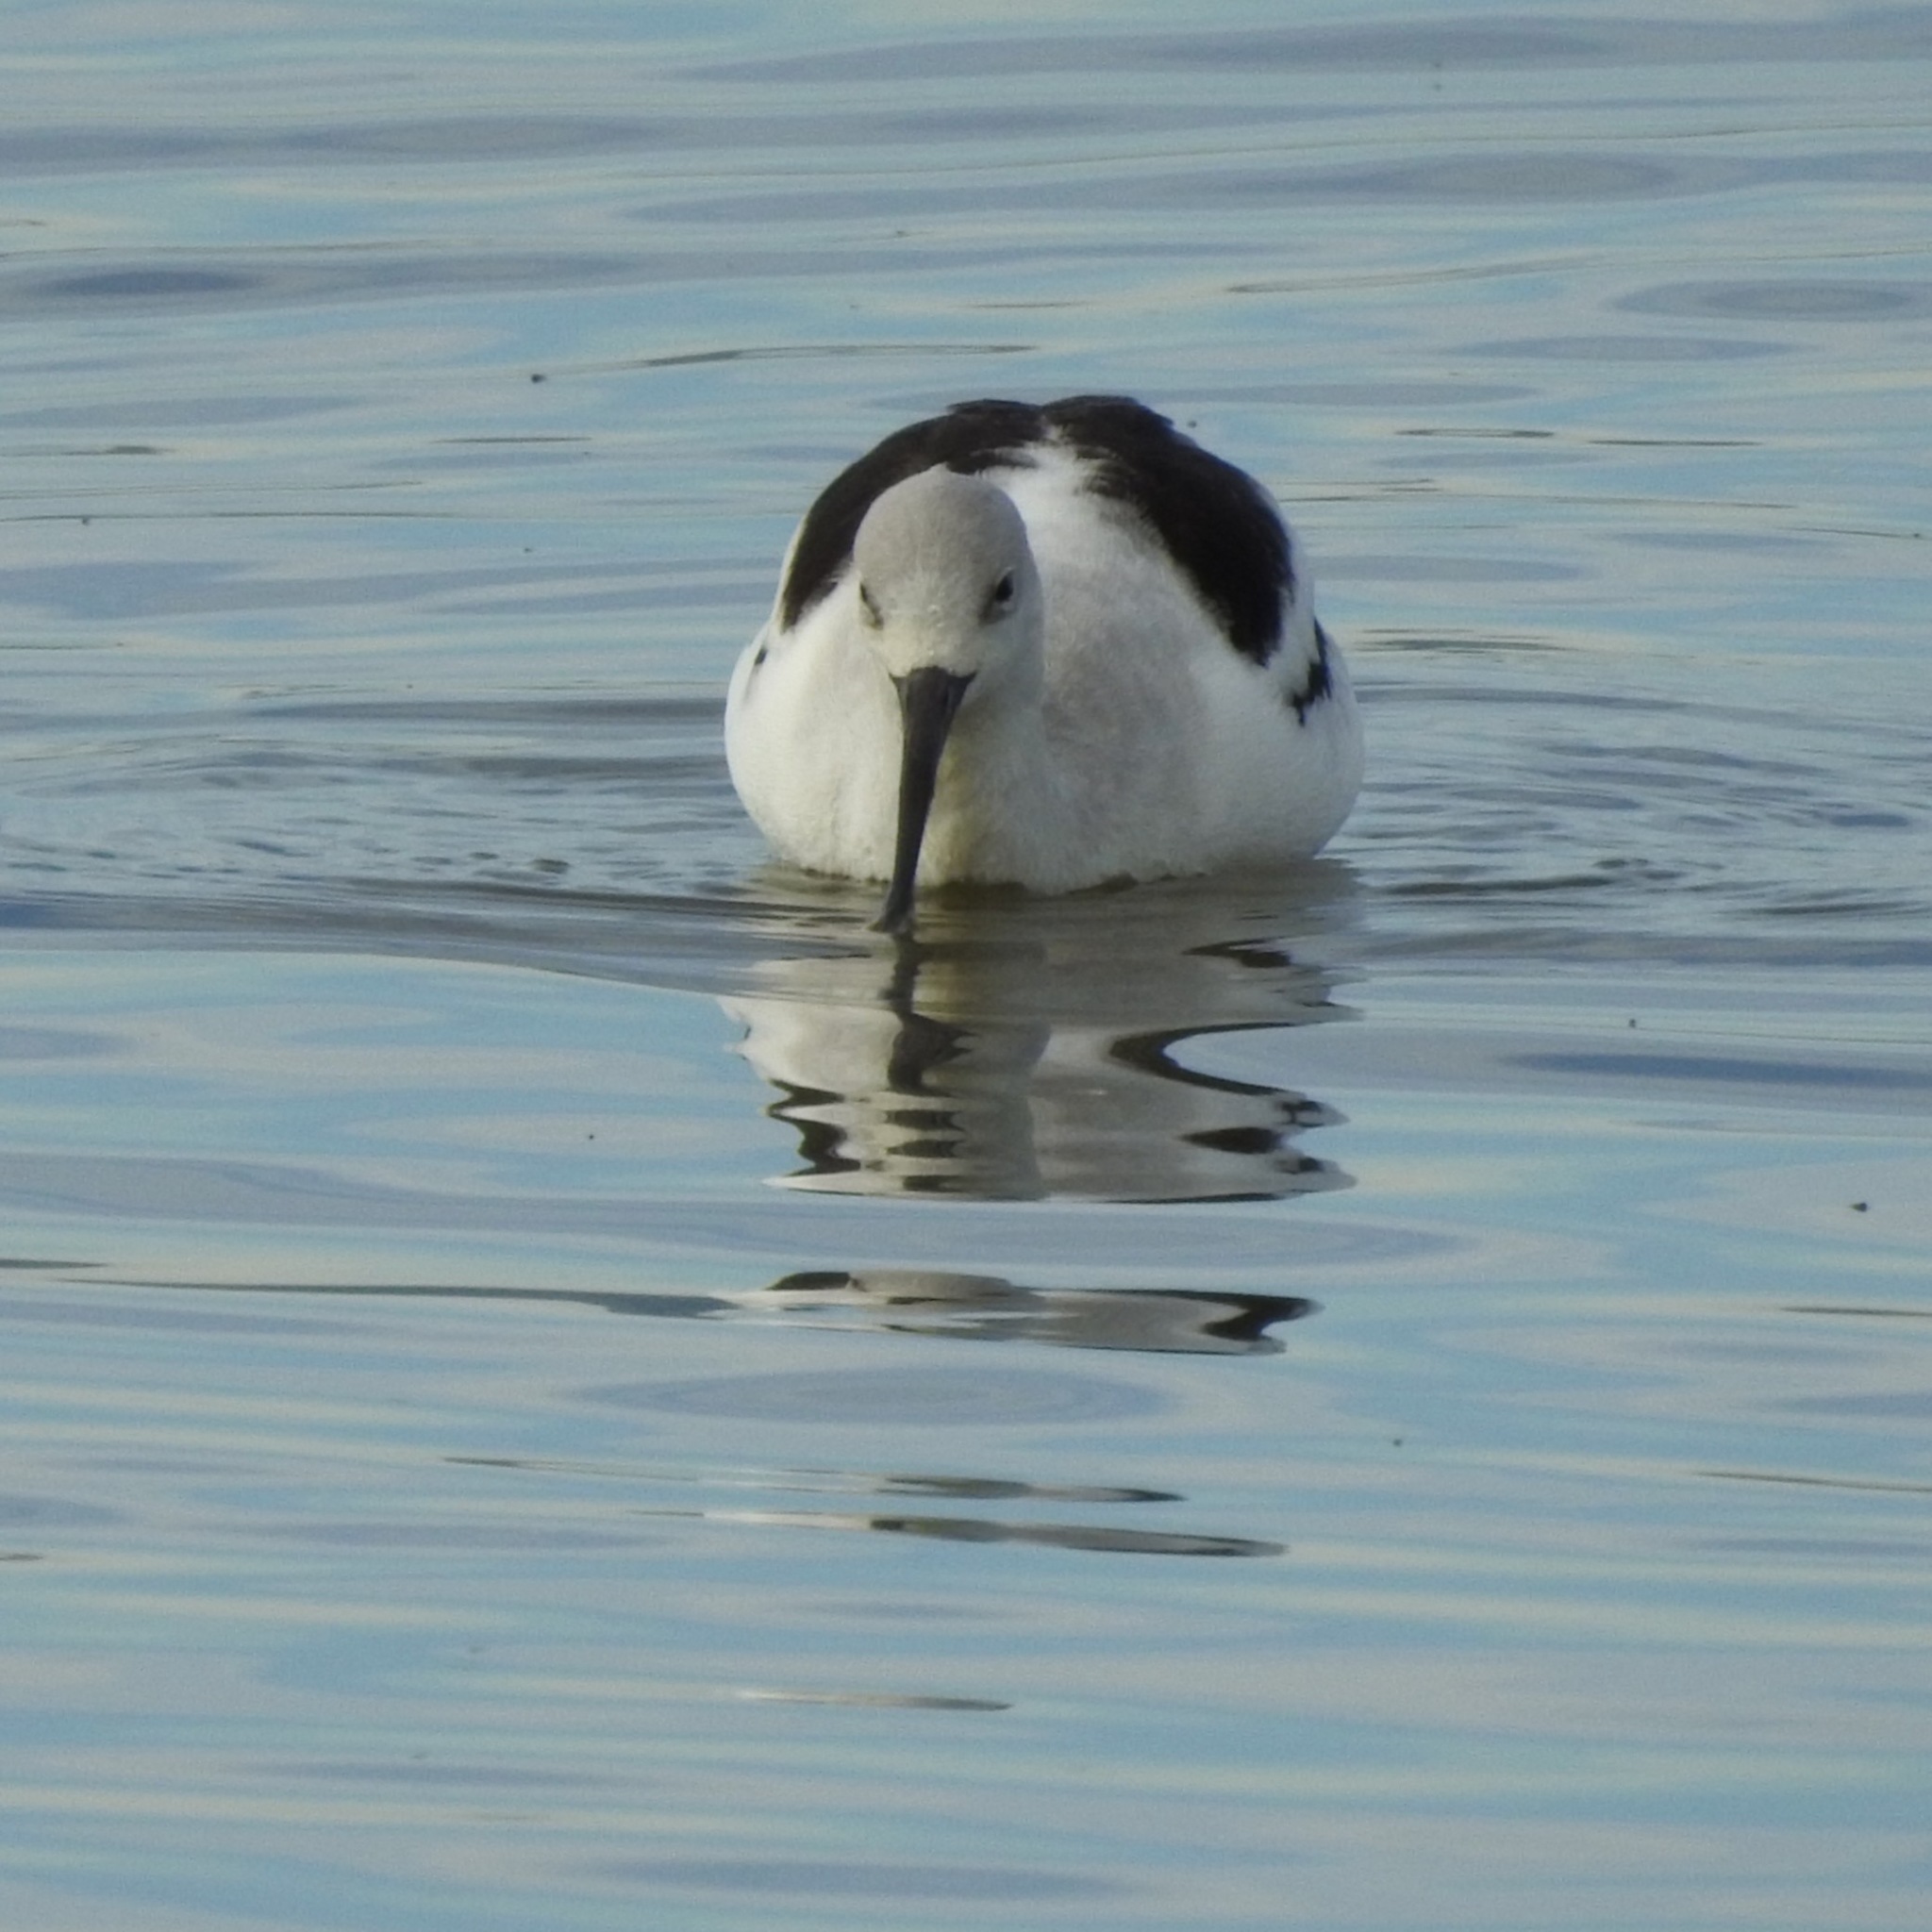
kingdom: Animalia
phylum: Chordata
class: Aves
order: Charadriiformes
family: Recurvirostridae
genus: Recurvirostra
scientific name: Recurvirostra americana
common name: American avocet
